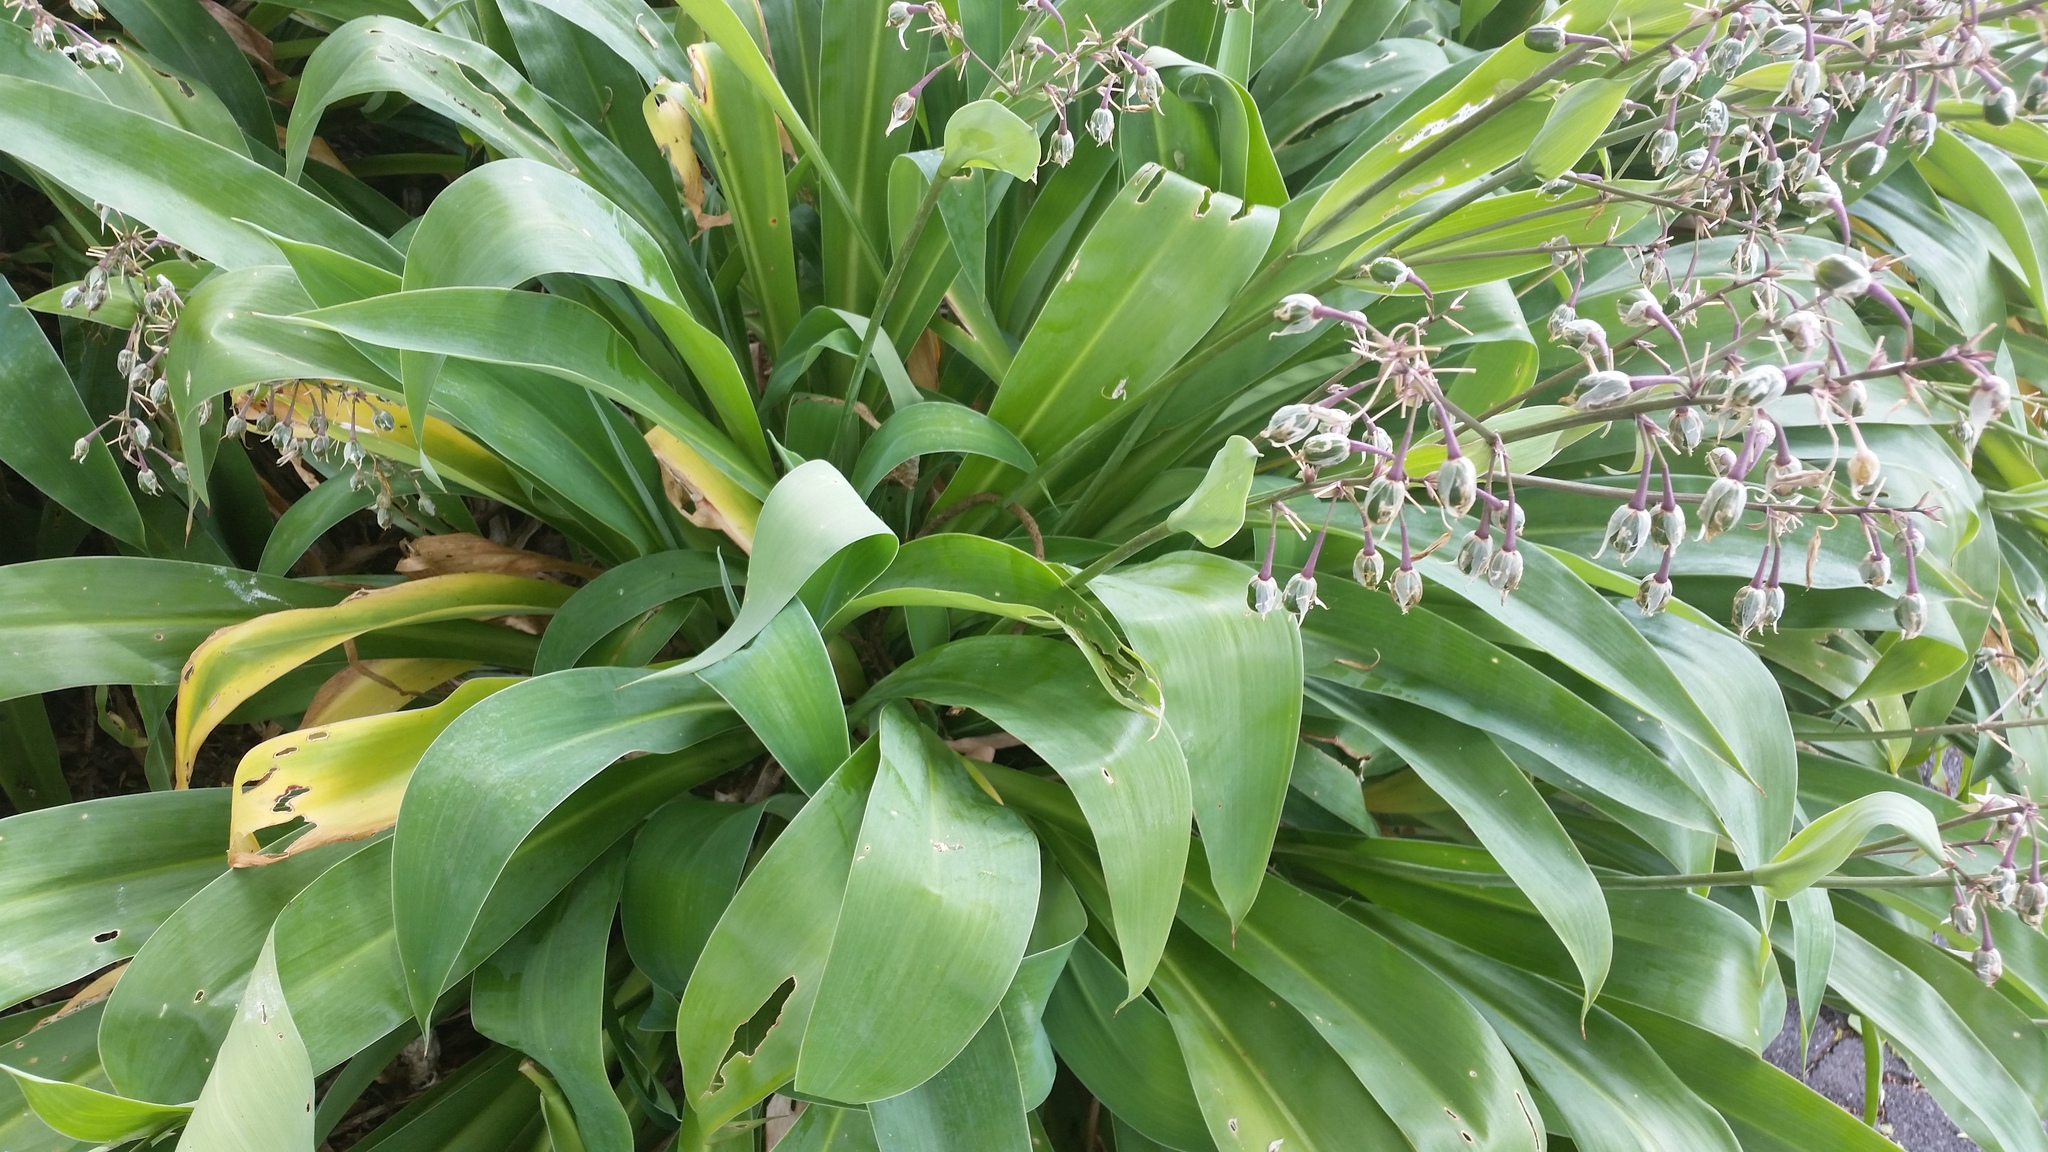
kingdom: Plantae
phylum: Tracheophyta
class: Liliopsida
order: Asparagales
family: Asparagaceae
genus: Arthropodium
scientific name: Arthropodium bifurcatum
